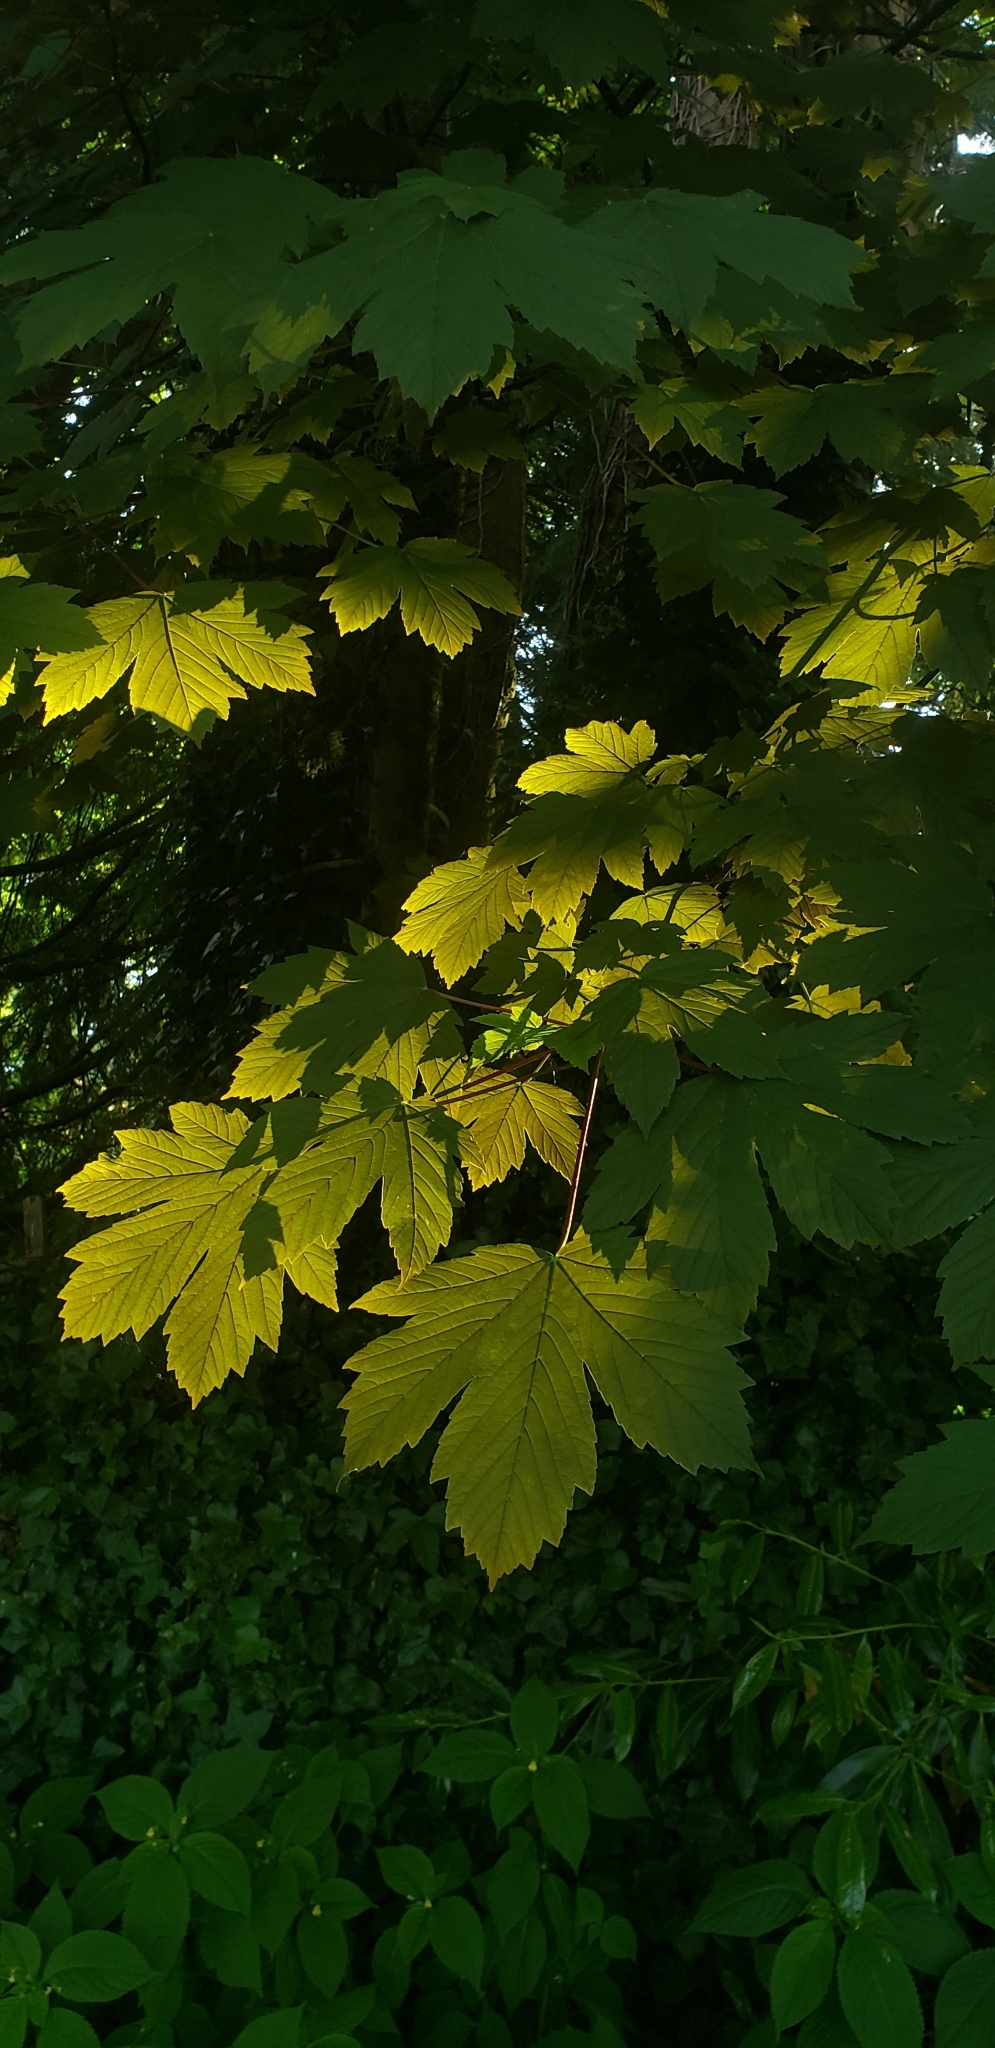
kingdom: Plantae
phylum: Tracheophyta
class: Magnoliopsida
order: Sapindales
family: Sapindaceae
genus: Acer
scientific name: Acer pseudoplatanus
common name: Sycamore
